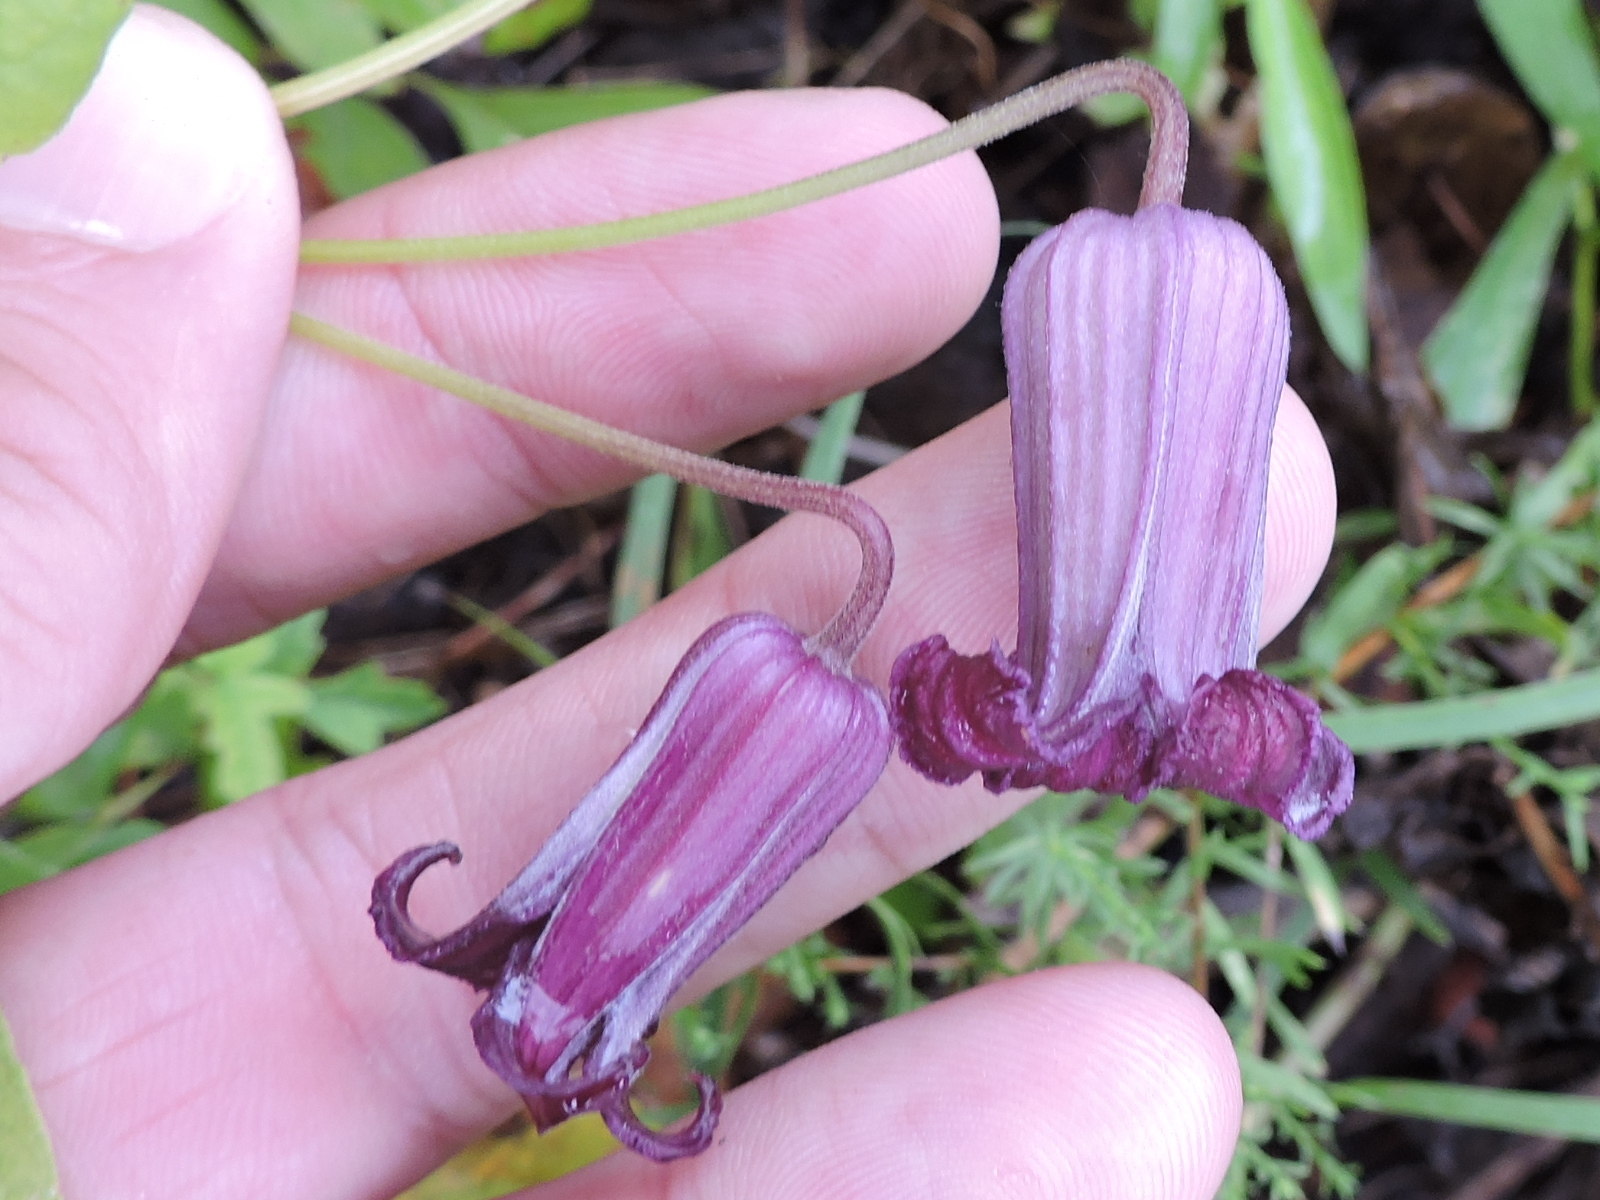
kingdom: Plantae
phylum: Tracheophyta
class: Magnoliopsida
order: Ranunculales
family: Ranunculaceae
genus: Clematis
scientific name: Clematis pitcheri
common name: Bellflower clematis
